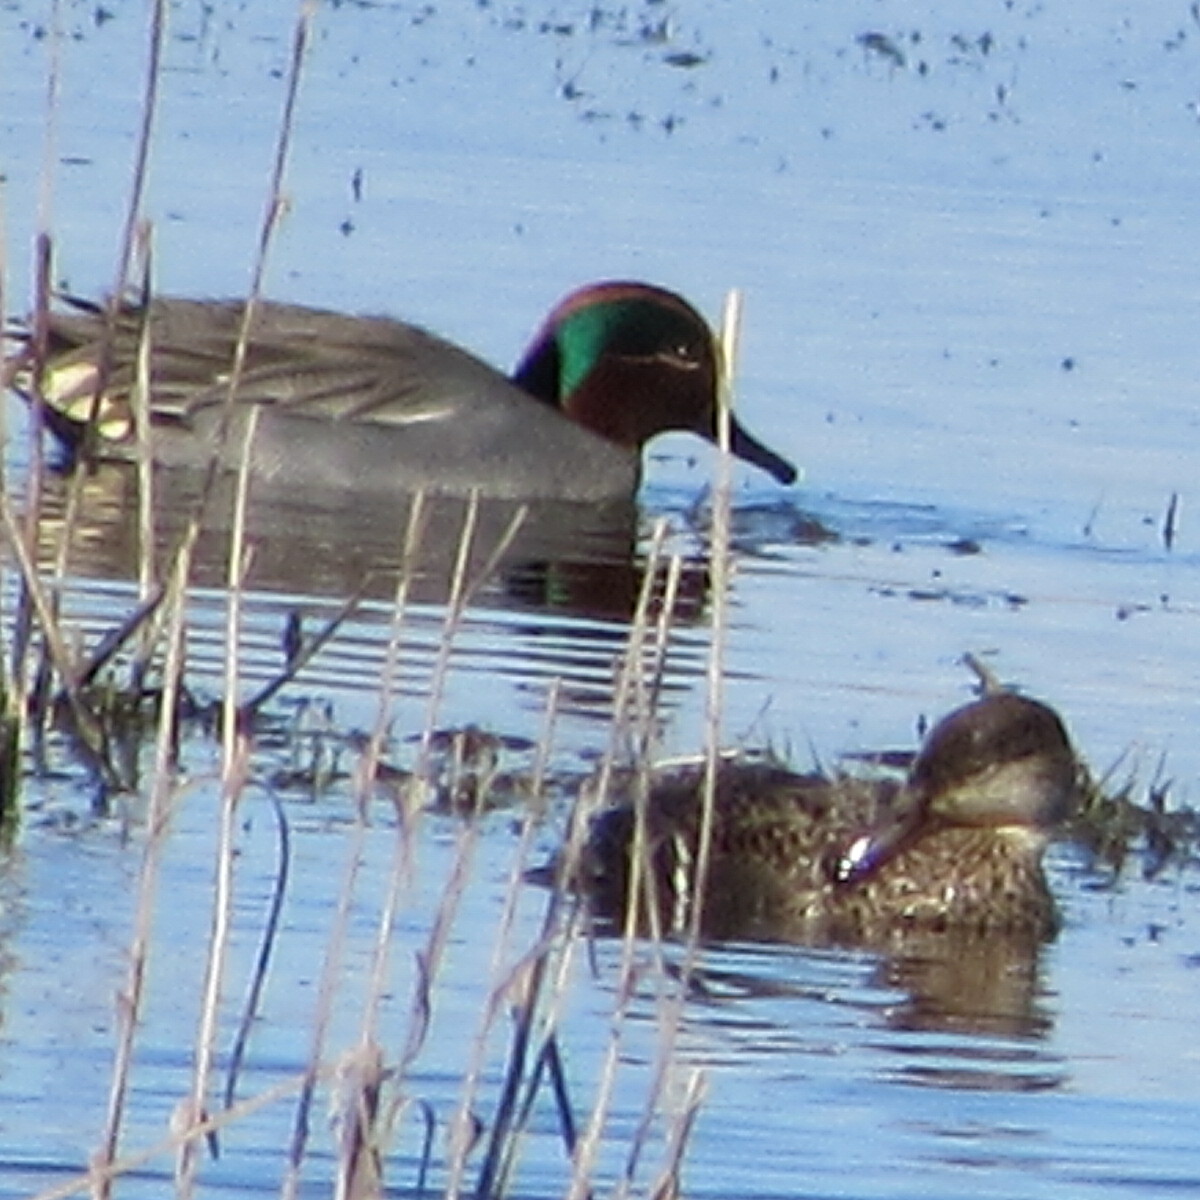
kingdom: Animalia
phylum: Chordata
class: Aves
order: Anseriformes
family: Anatidae
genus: Anas
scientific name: Anas crecca
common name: Eurasian teal
